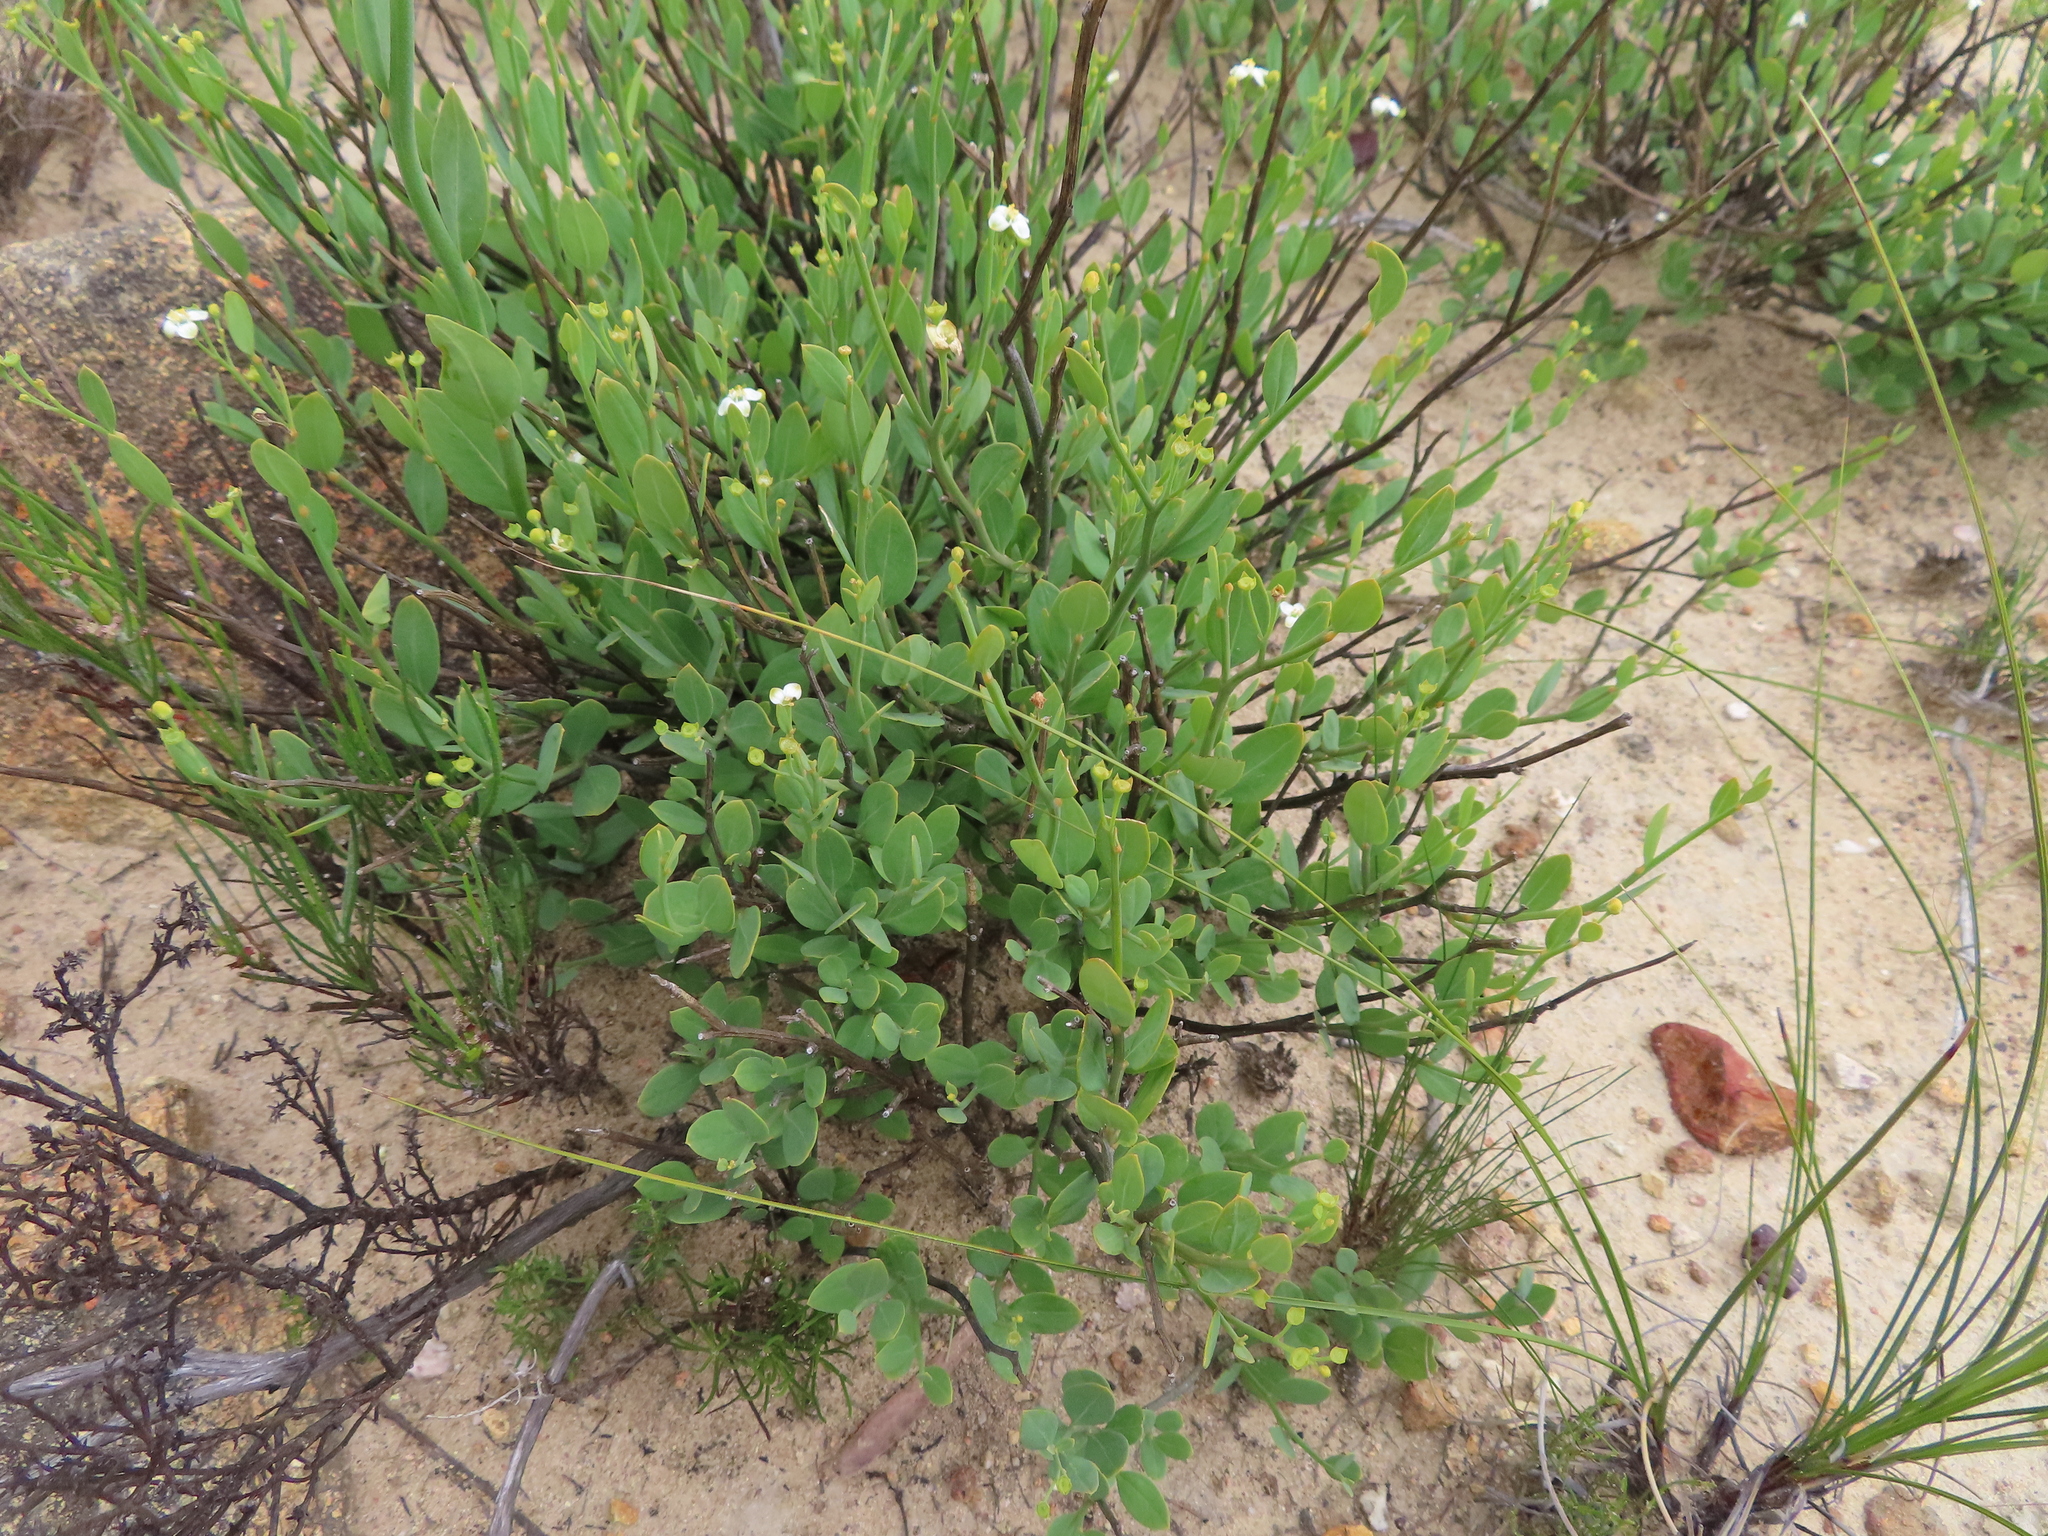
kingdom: Plantae
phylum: Tracheophyta
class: Magnoliopsida
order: Solanales
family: Montiniaceae
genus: Montinia
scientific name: Montinia caryophyllacea
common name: Wild clove-bush
